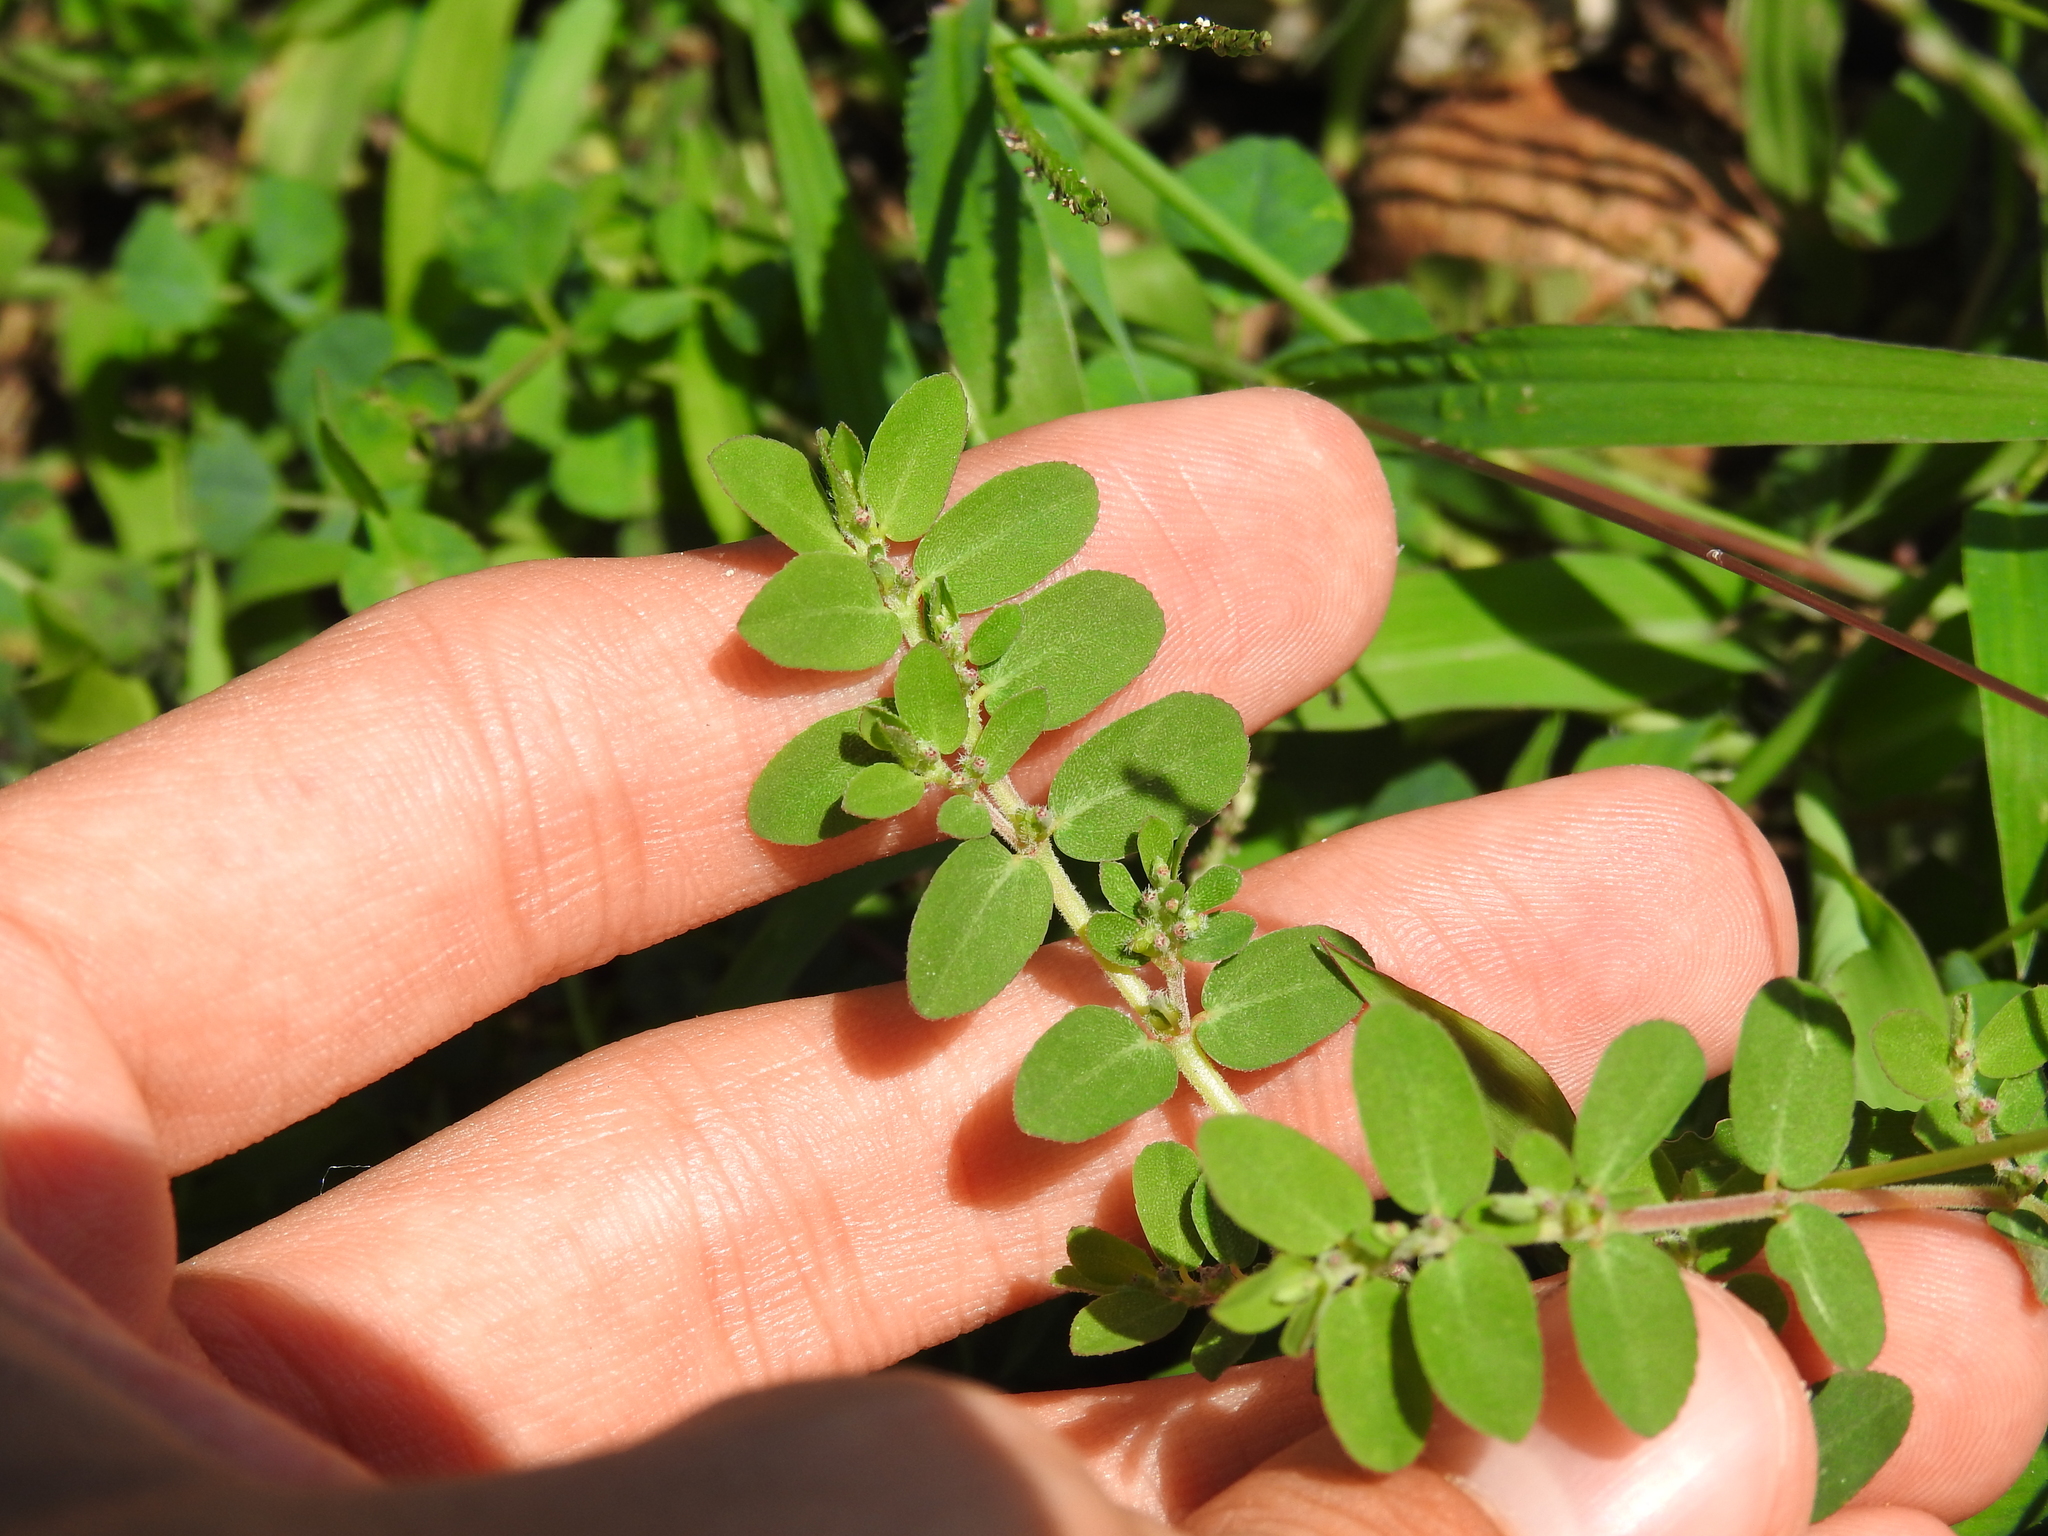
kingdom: Plantae
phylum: Tracheophyta
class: Magnoliopsida
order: Malpighiales
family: Euphorbiaceae
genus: Euphorbia
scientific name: Euphorbia prostrata
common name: Prostrate sandmat
